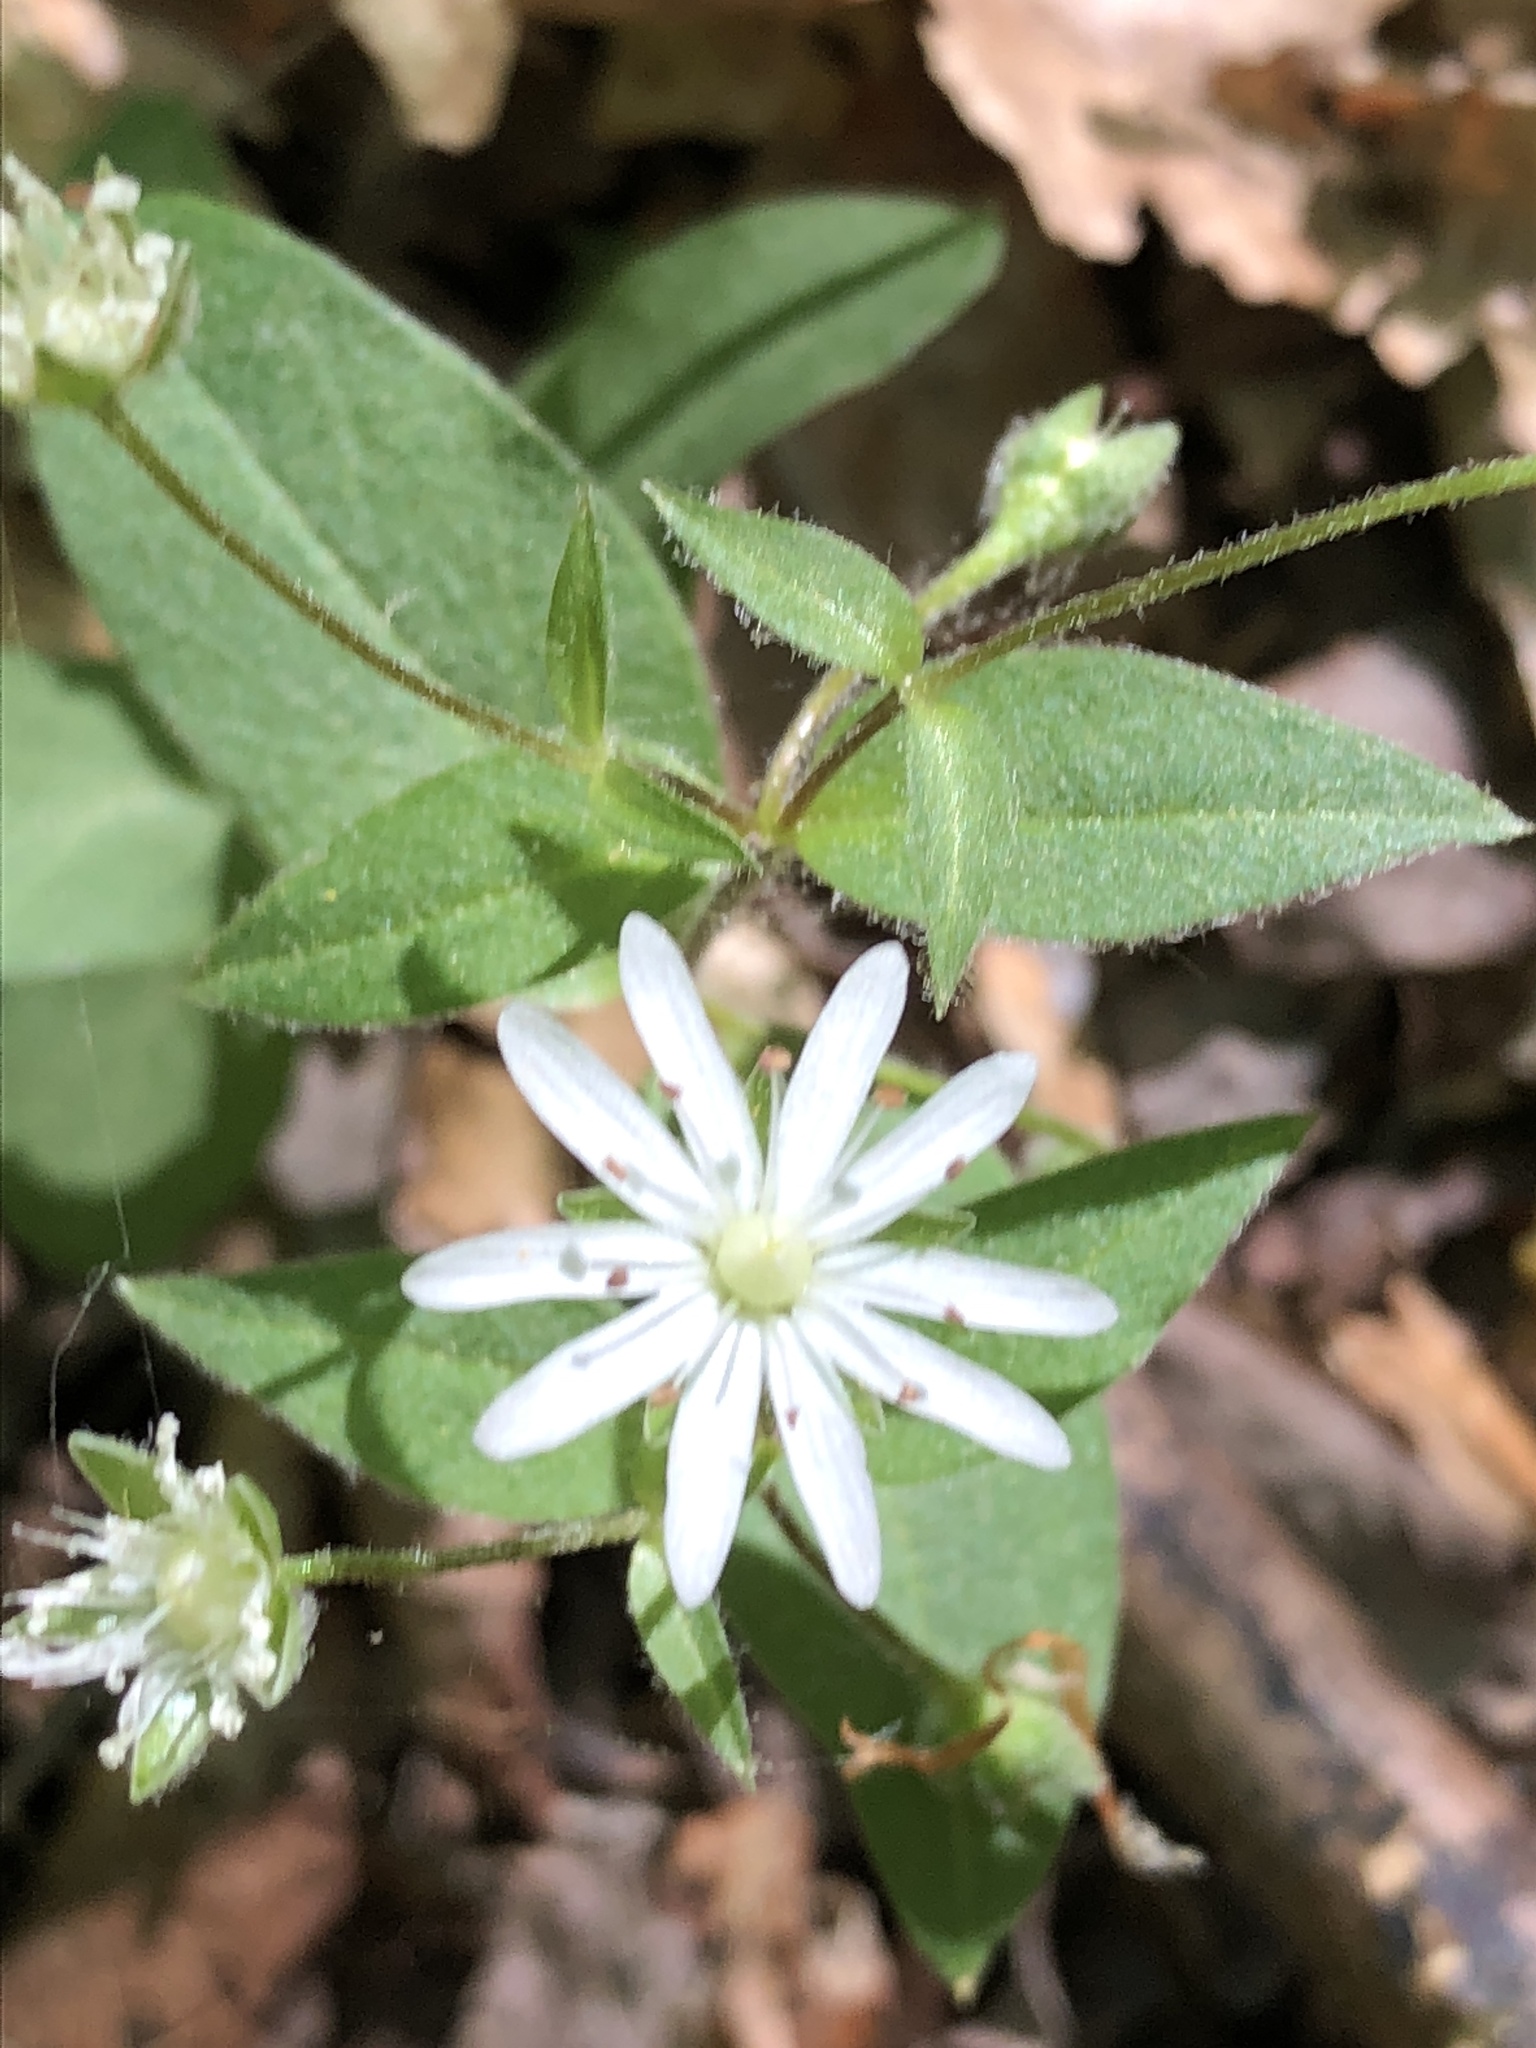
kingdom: Plantae
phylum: Tracheophyta
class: Magnoliopsida
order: Caryophyllales
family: Caryophyllaceae
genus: Stellaria
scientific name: Stellaria pubera
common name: Star chickweed
